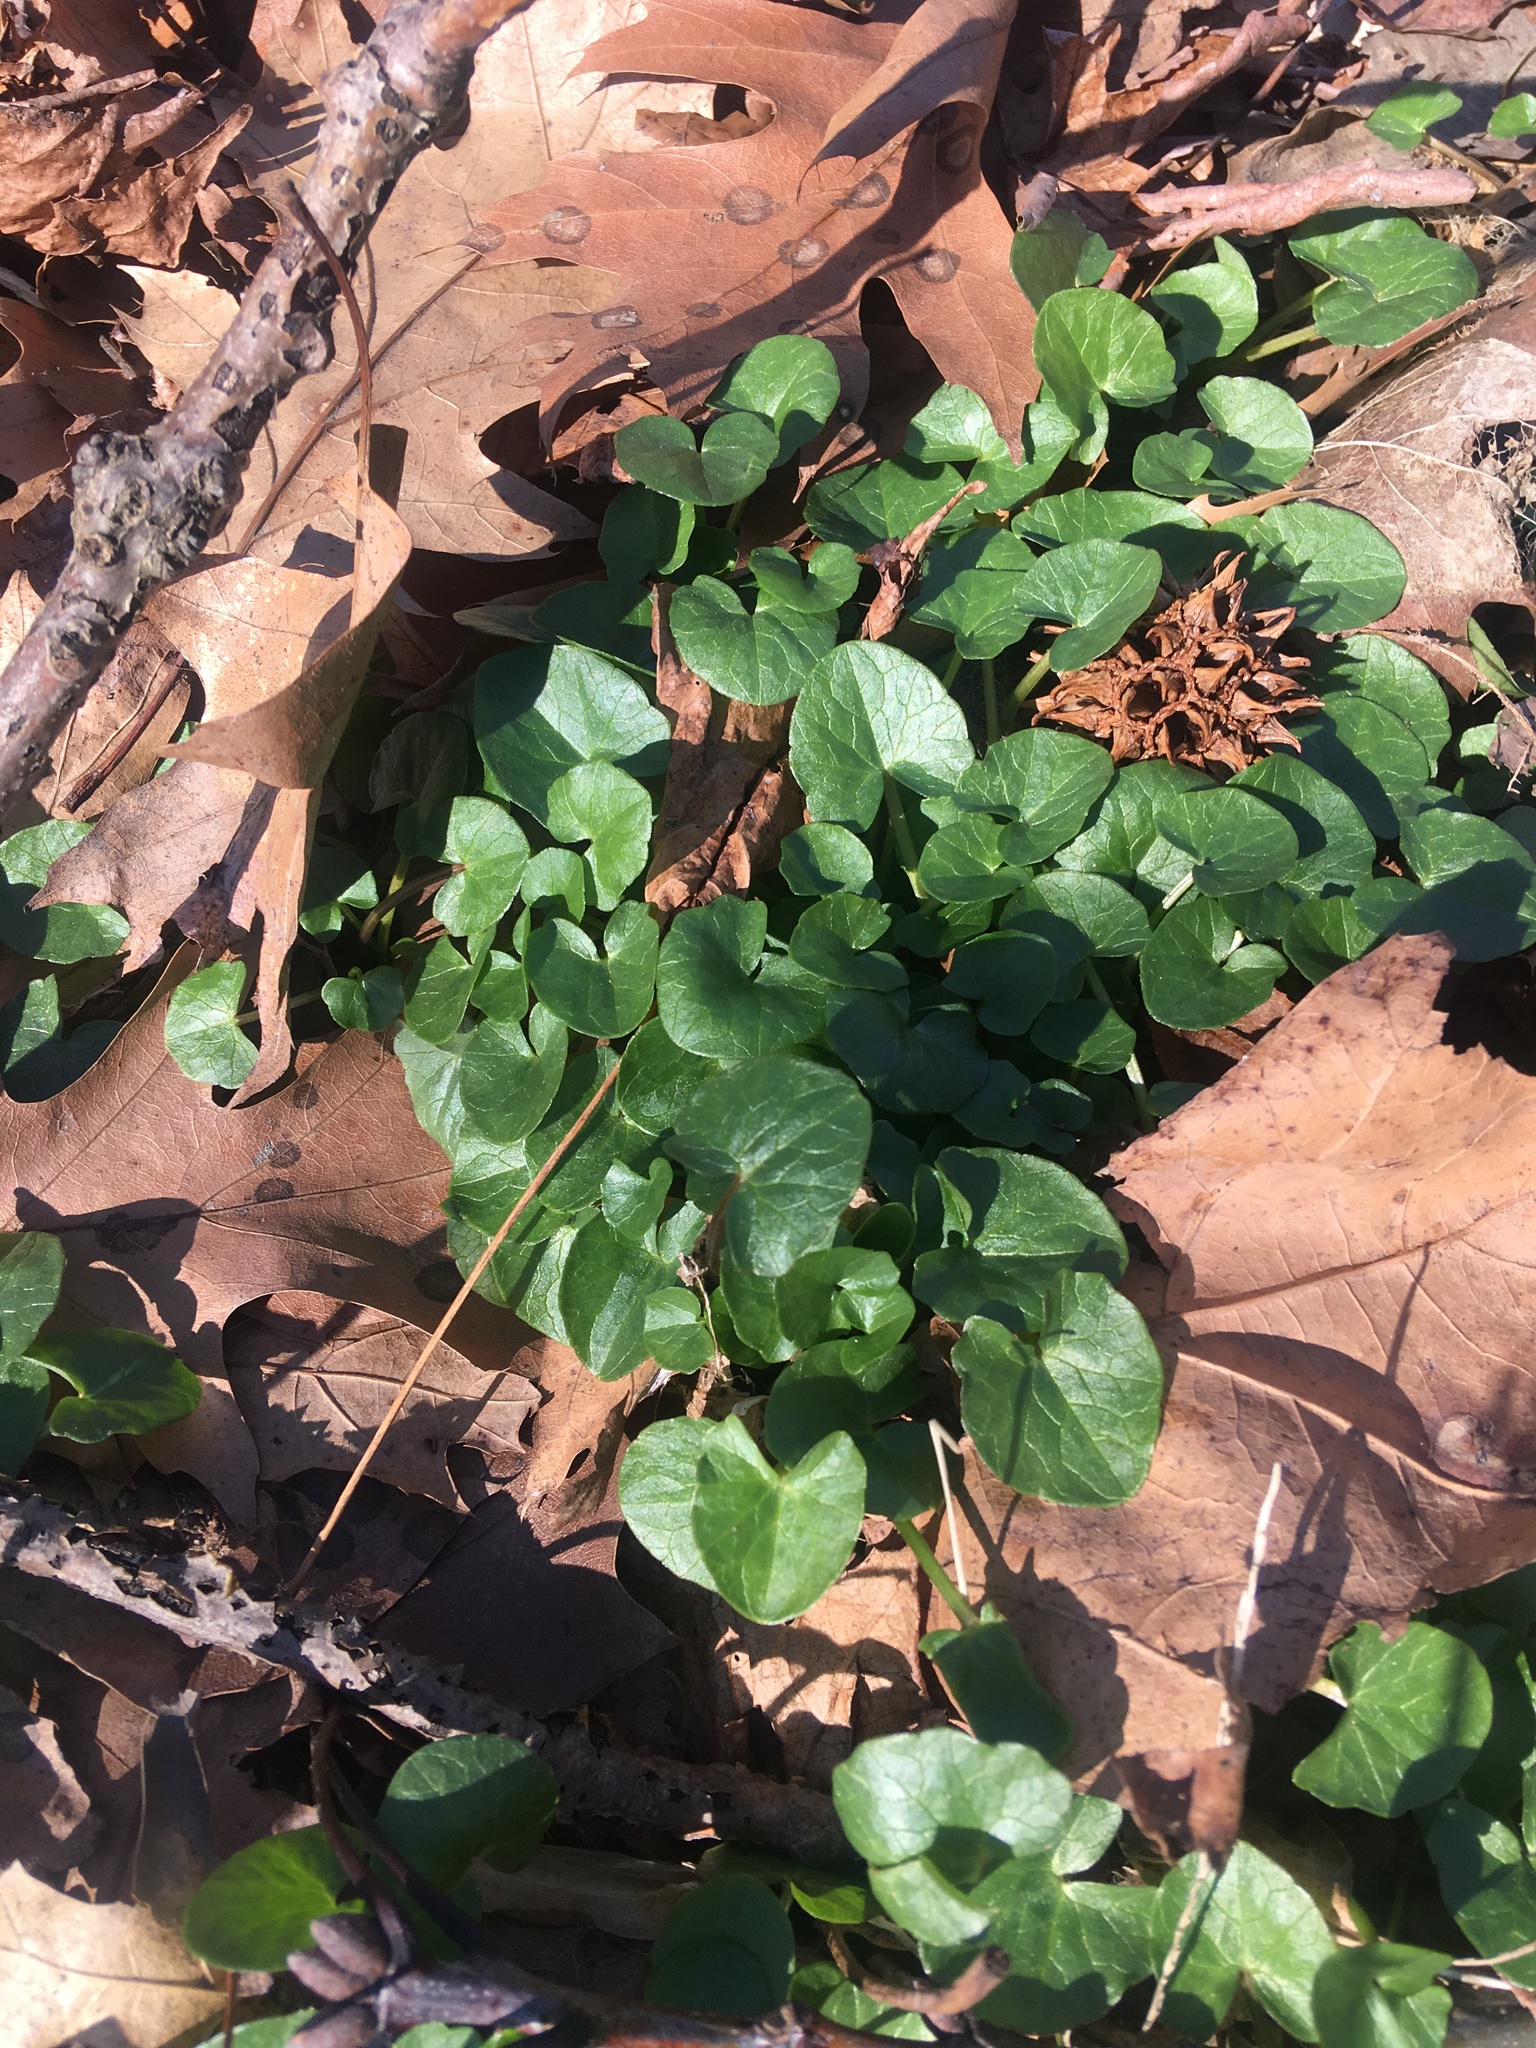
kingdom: Plantae
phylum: Tracheophyta
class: Magnoliopsida
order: Ranunculales
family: Ranunculaceae
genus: Ficaria
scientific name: Ficaria verna
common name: Lesser celandine
